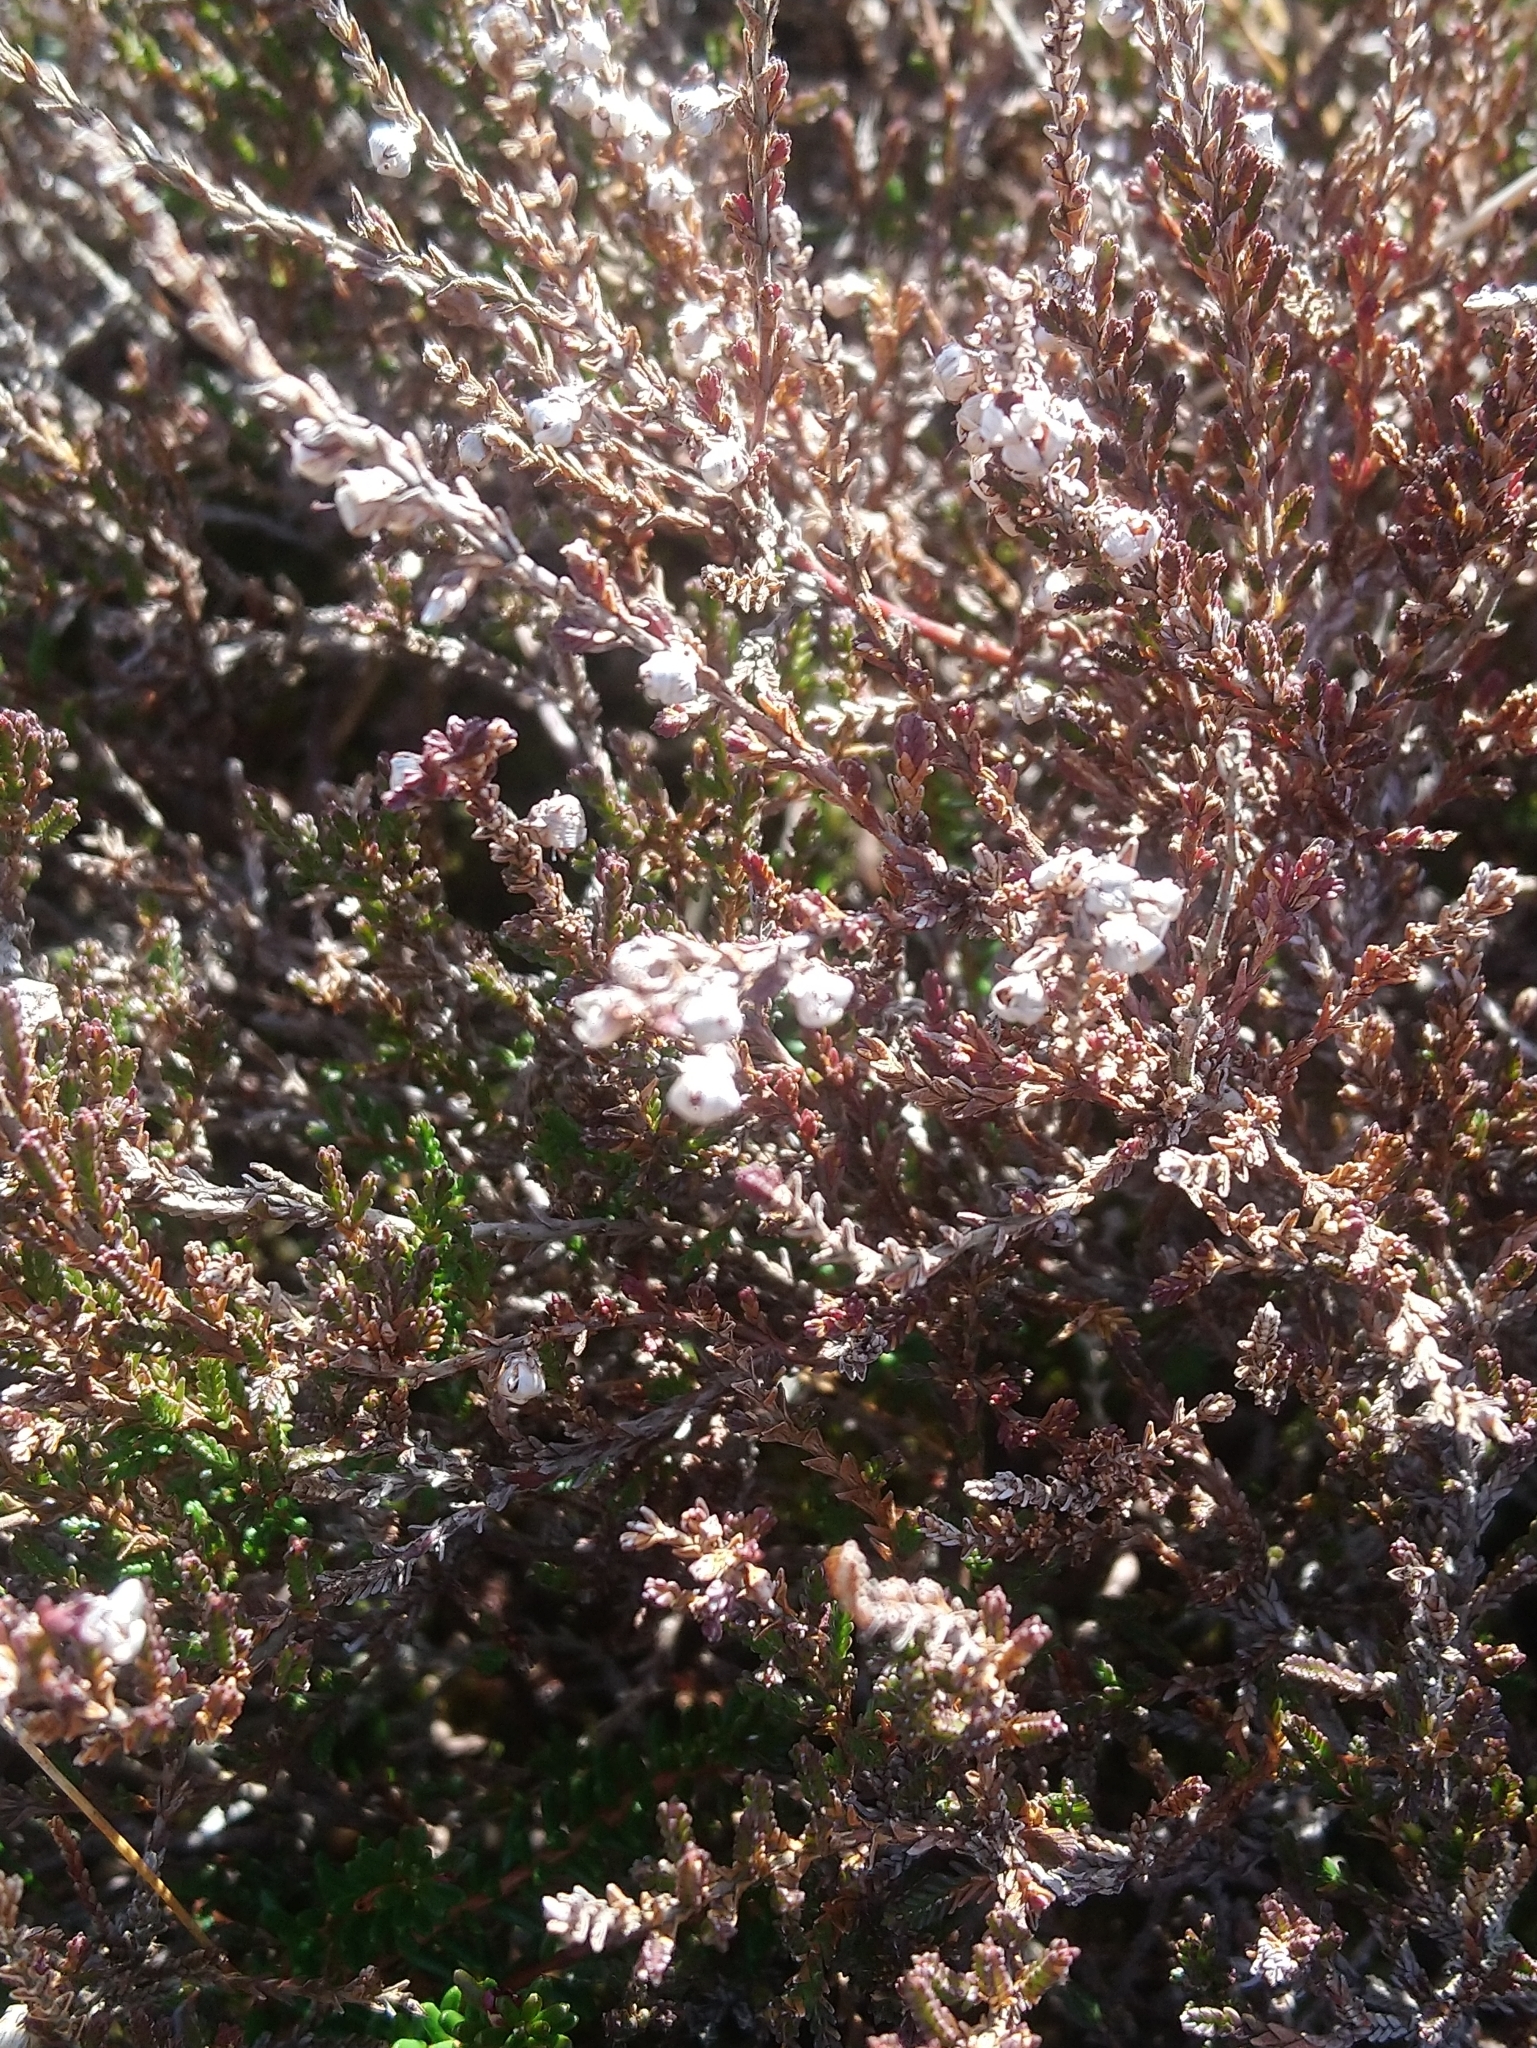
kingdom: Plantae
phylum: Tracheophyta
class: Magnoliopsida
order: Ericales
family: Ericaceae
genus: Calluna
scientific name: Calluna vulgaris
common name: Heather
